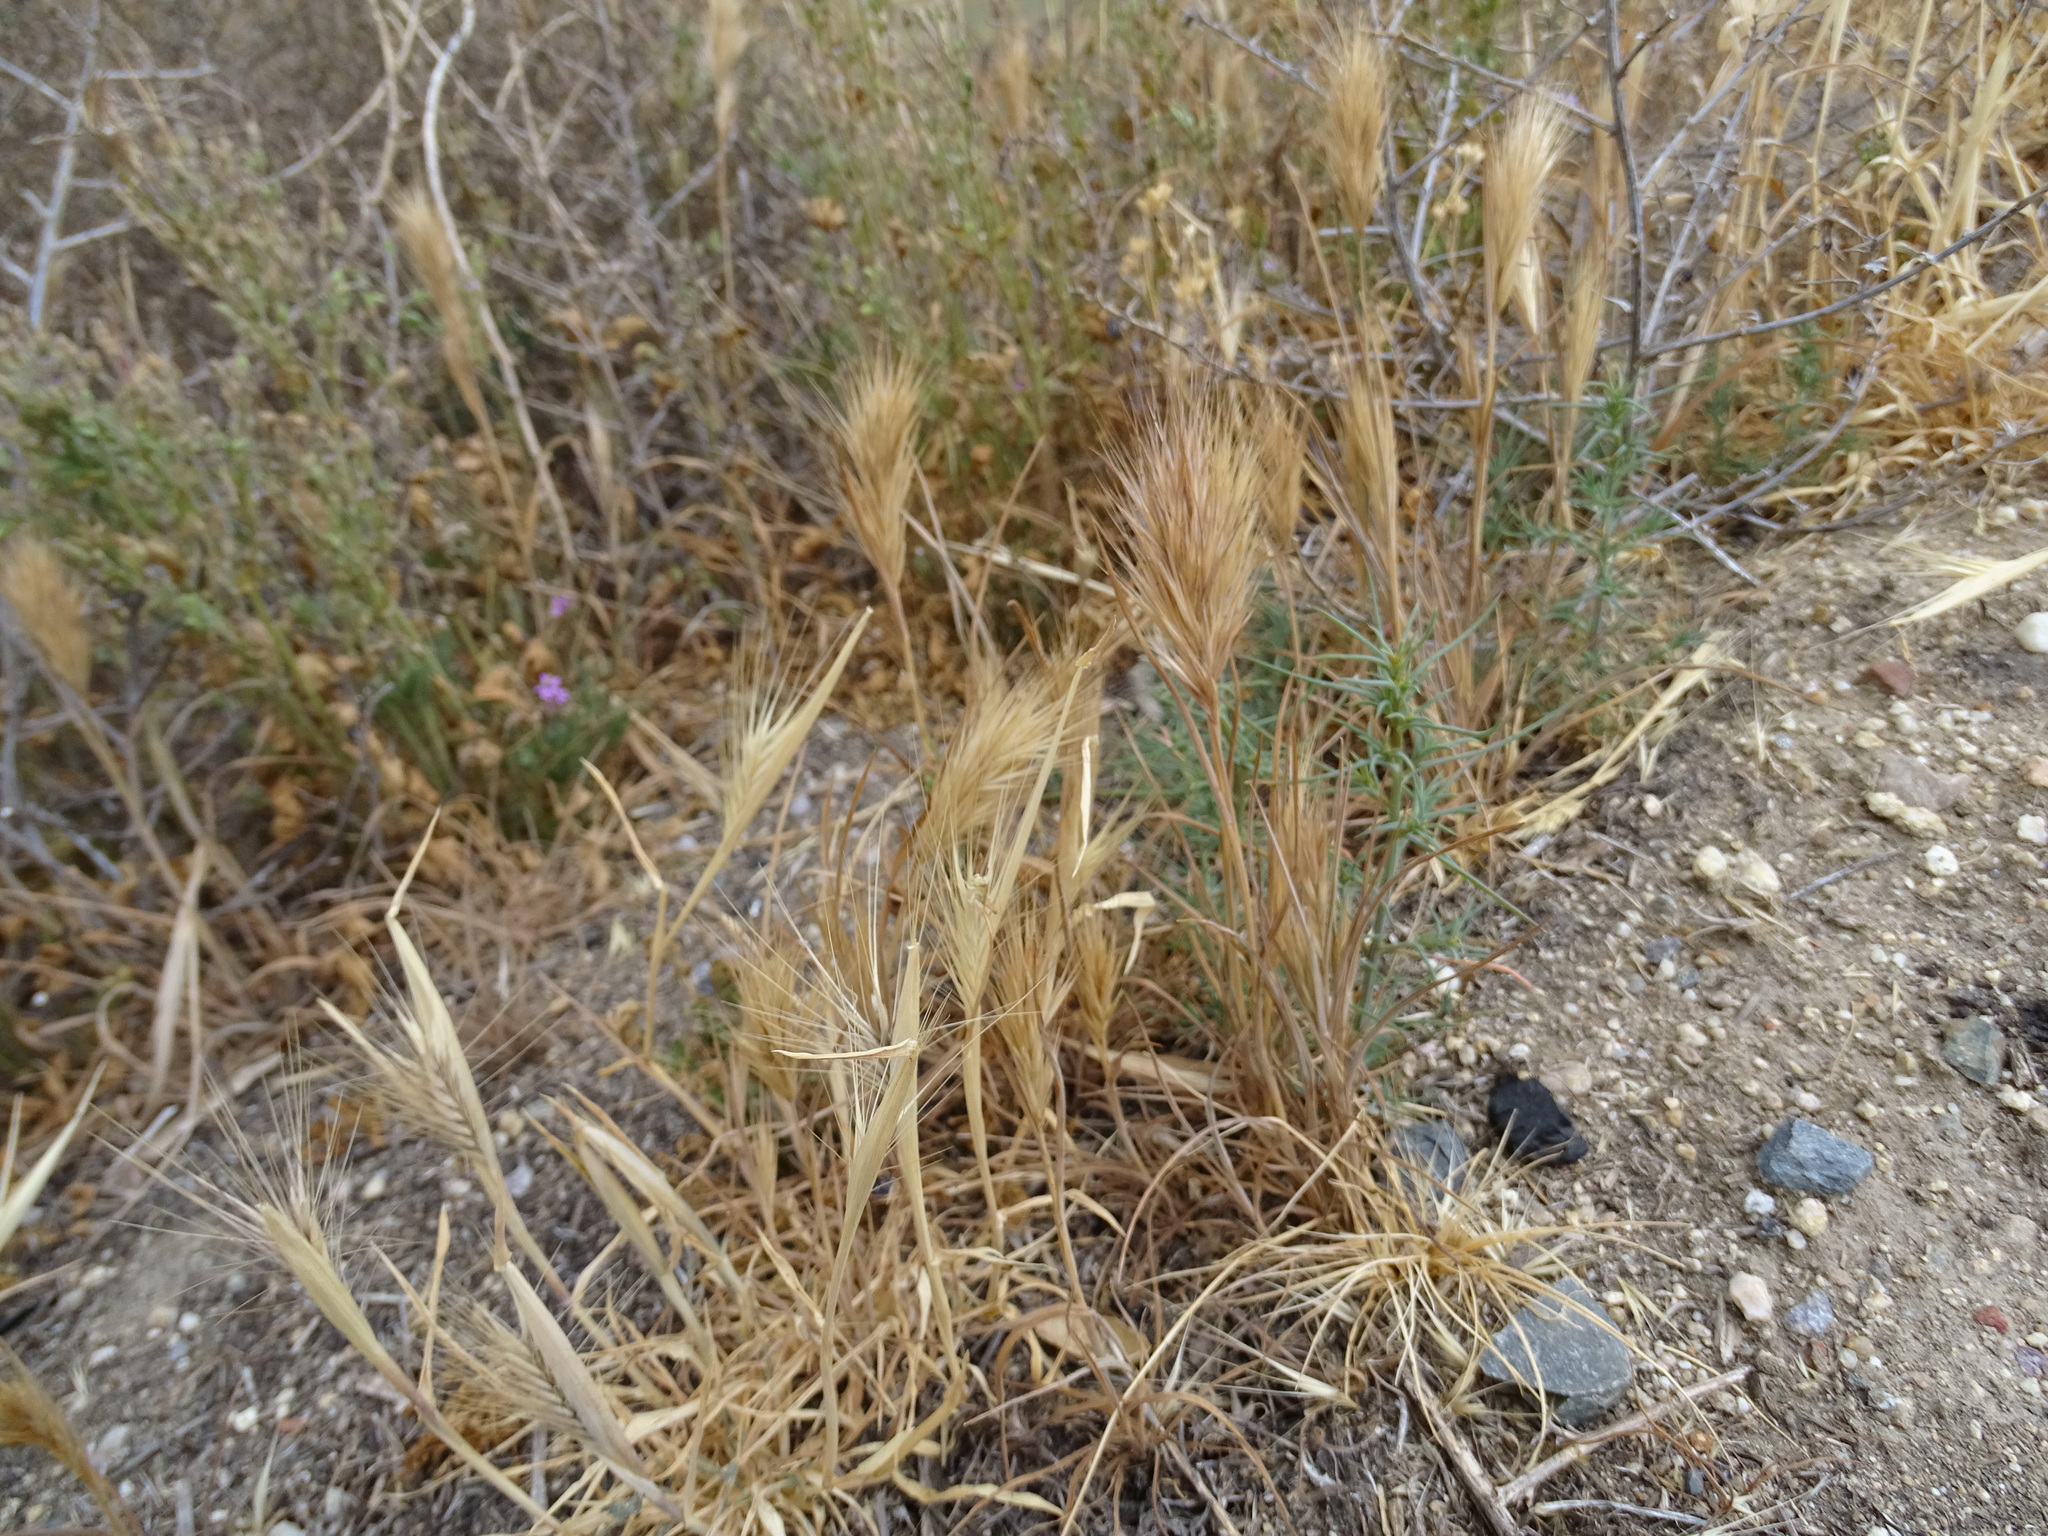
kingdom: Plantae
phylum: Tracheophyta
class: Liliopsida
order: Poales
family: Poaceae
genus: Bromus
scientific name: Bromus rubens
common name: Red brome
